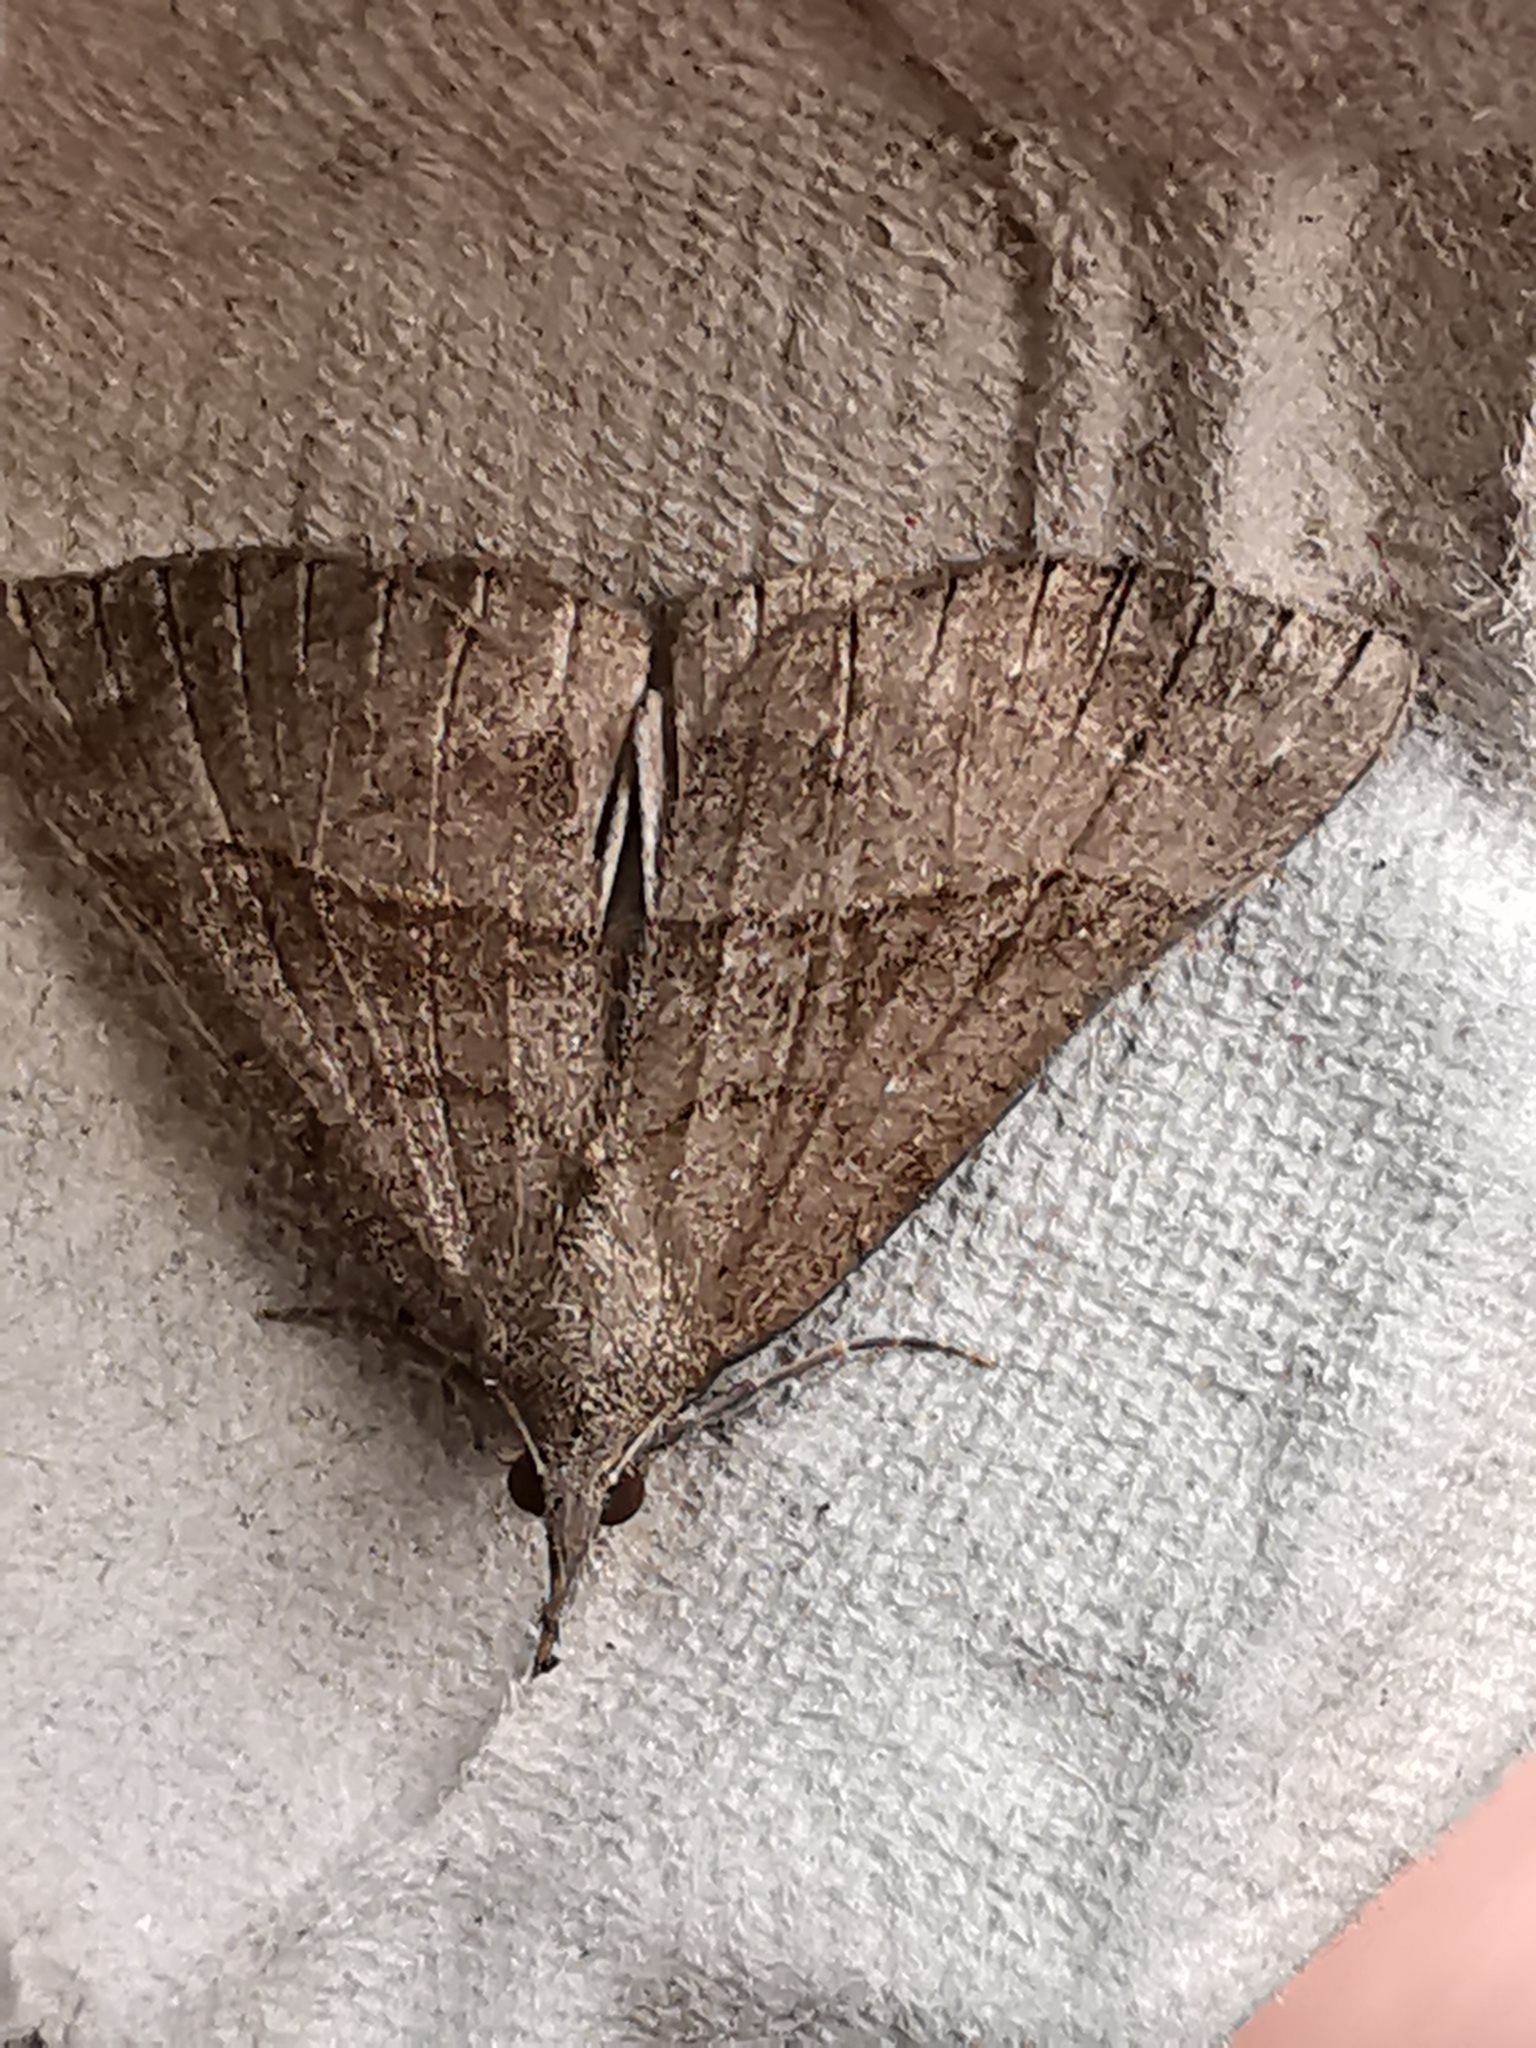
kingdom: Animalia
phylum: Arthropoda
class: Insecta
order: Lepidoptera
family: Erebidae
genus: Hypena
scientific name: Hypena proboscidalis
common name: Snout
